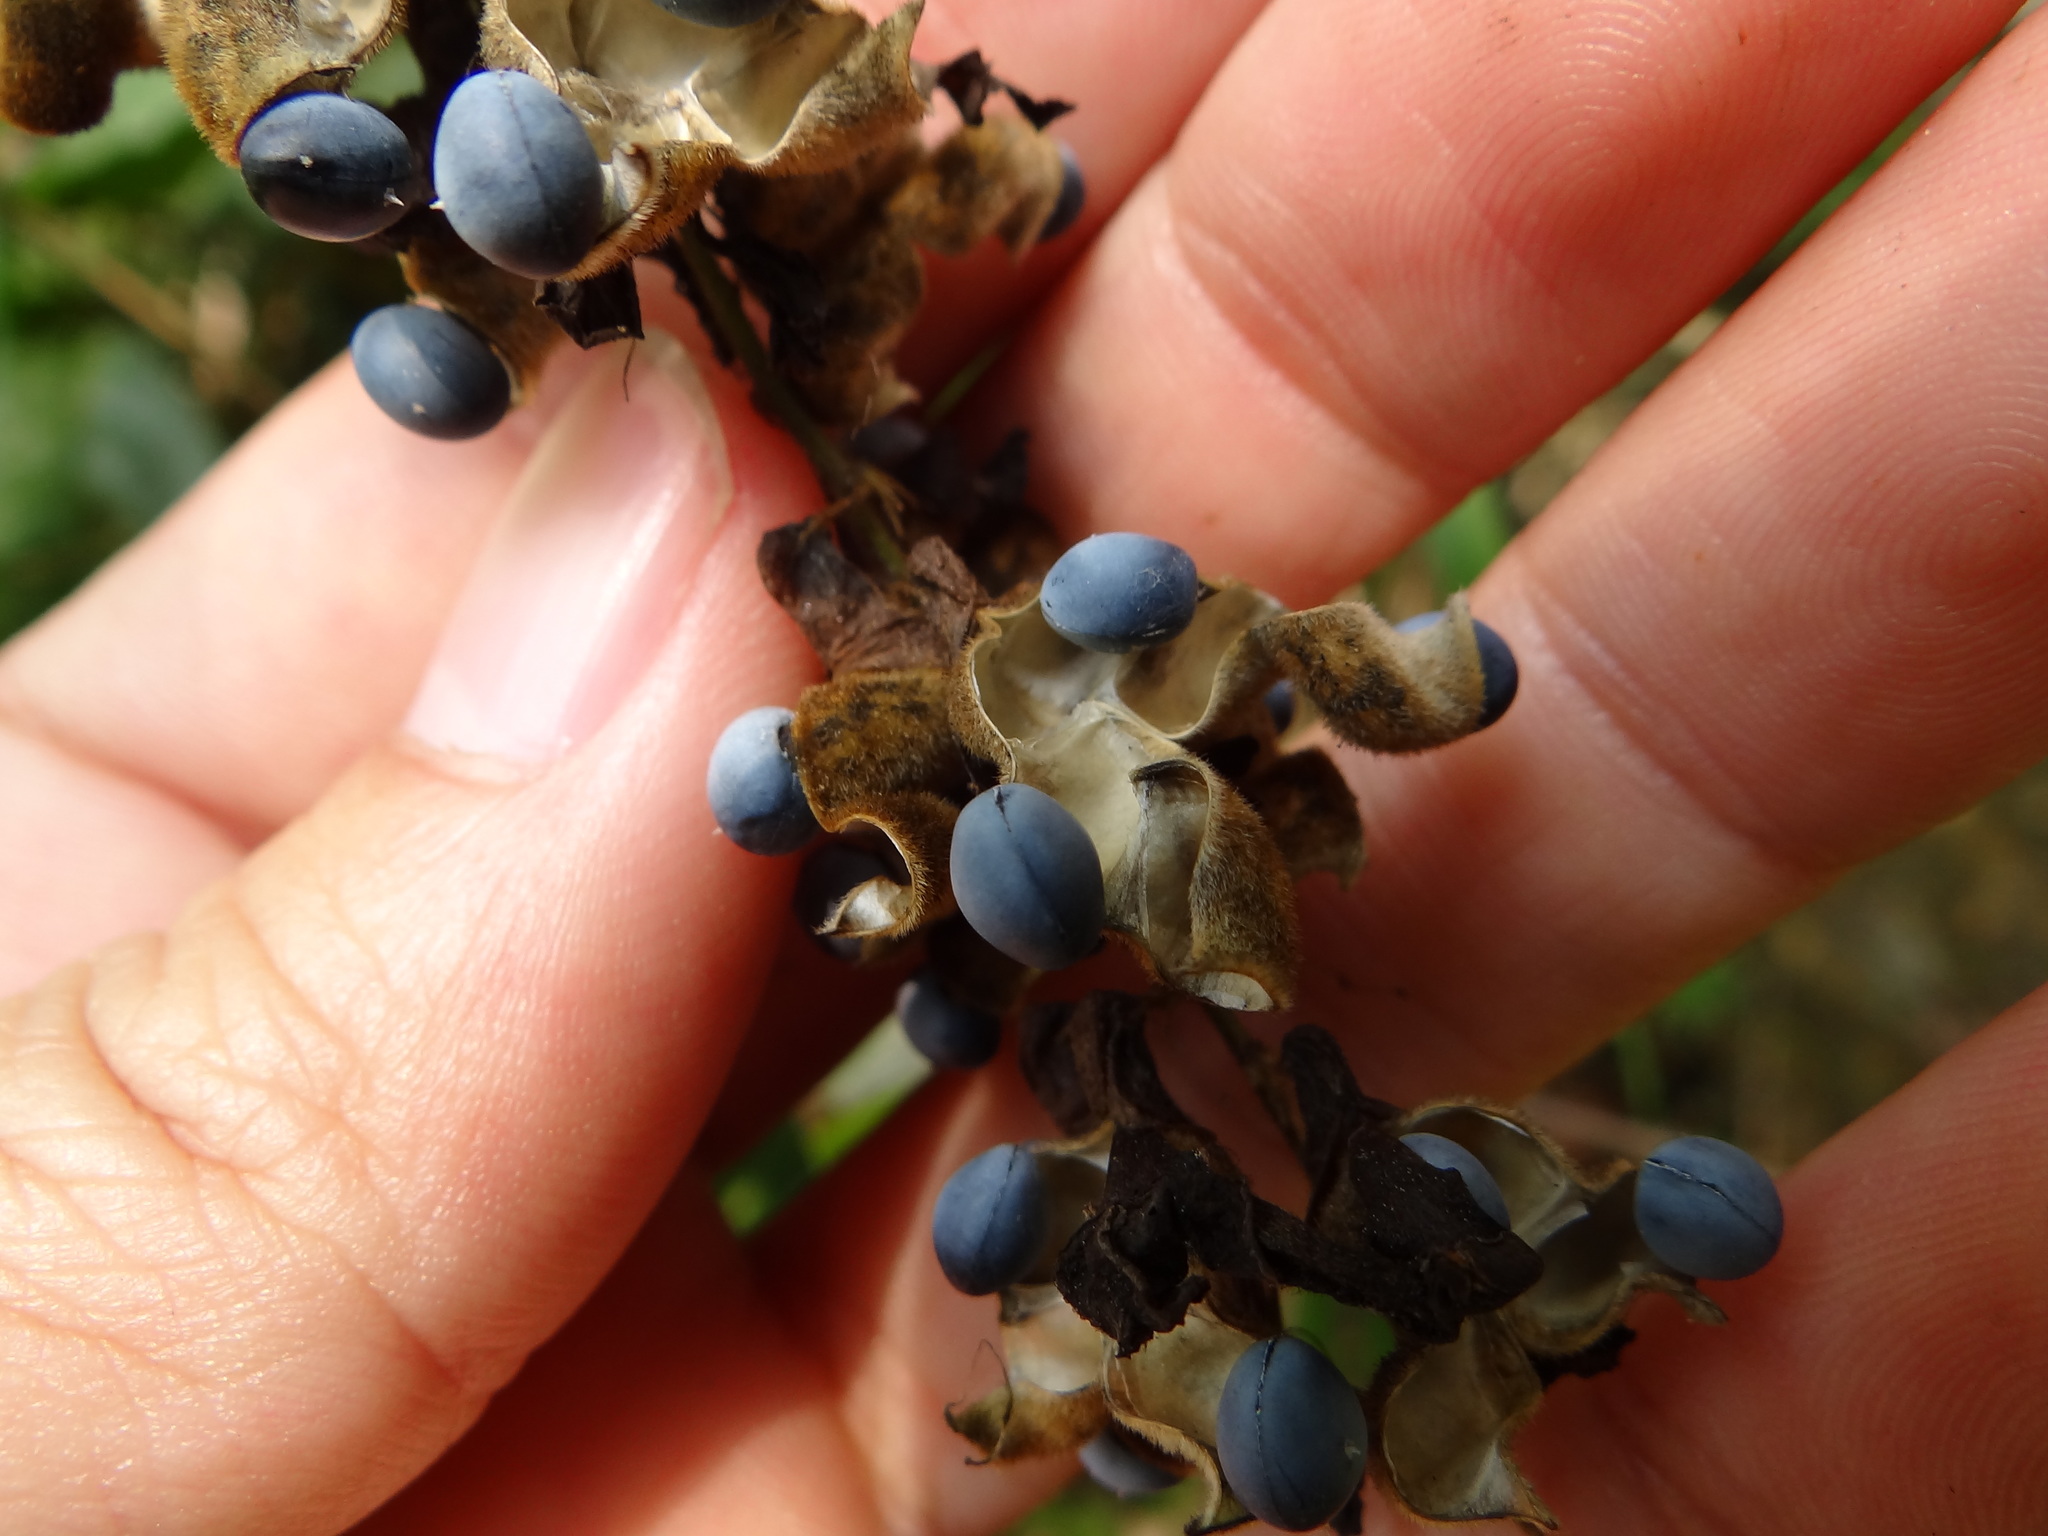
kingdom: Plantae
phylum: Tracheophyta
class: Magnoliopsida
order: Fabales
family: Fabaceae
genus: Dumasia
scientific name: Dumasia villosa
